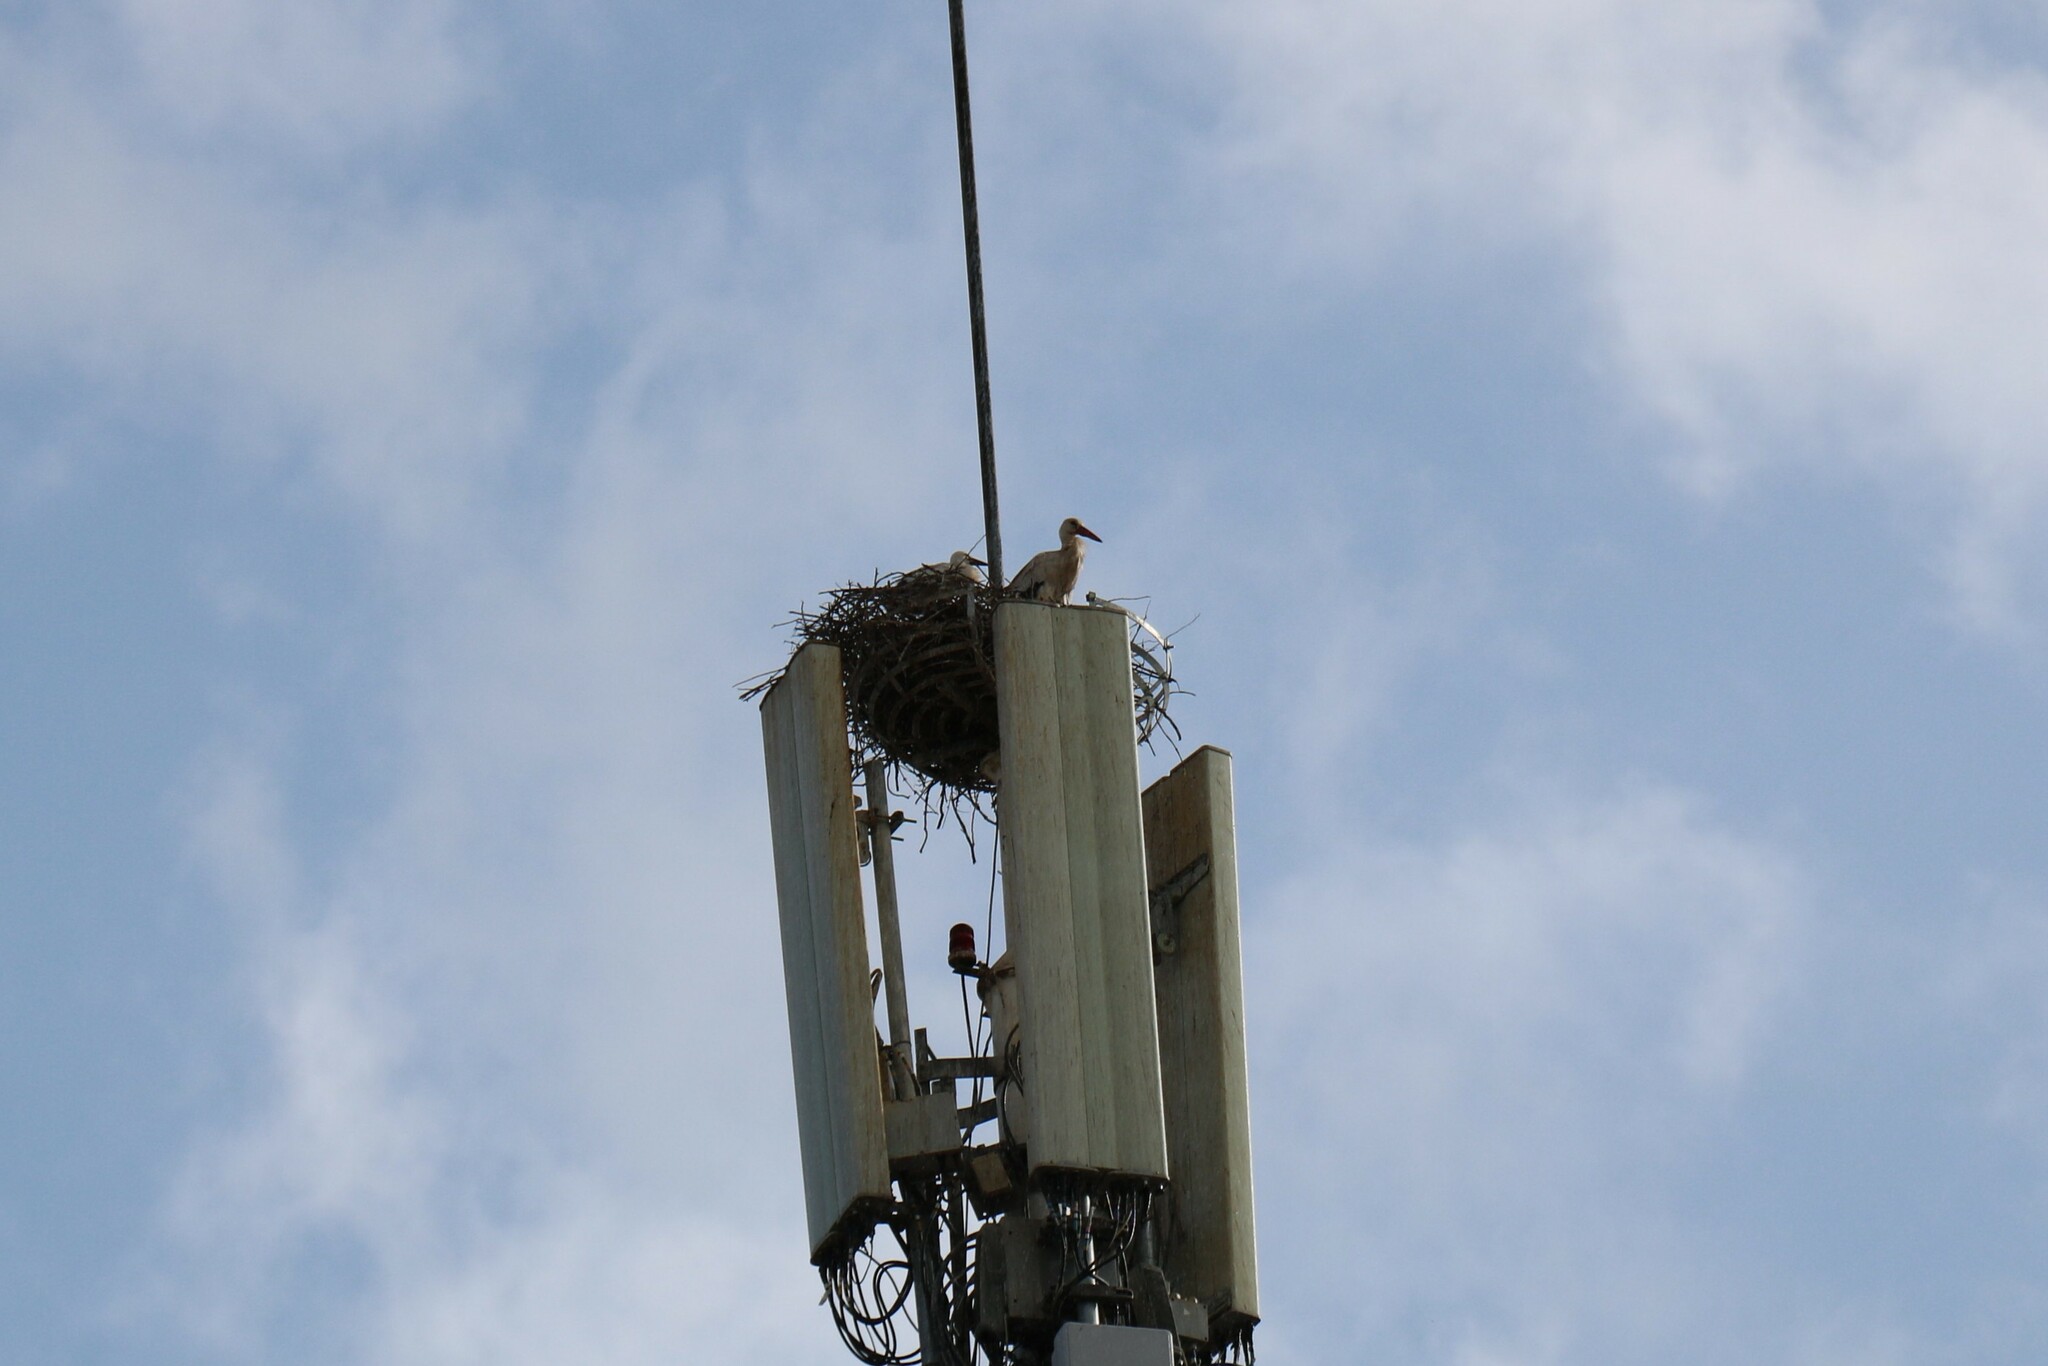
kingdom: Animalia
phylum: Chordata
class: Aves
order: Ciconiiformes
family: Ciconiidae
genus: Ciconia
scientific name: Ciconia ciconia
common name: White stork
